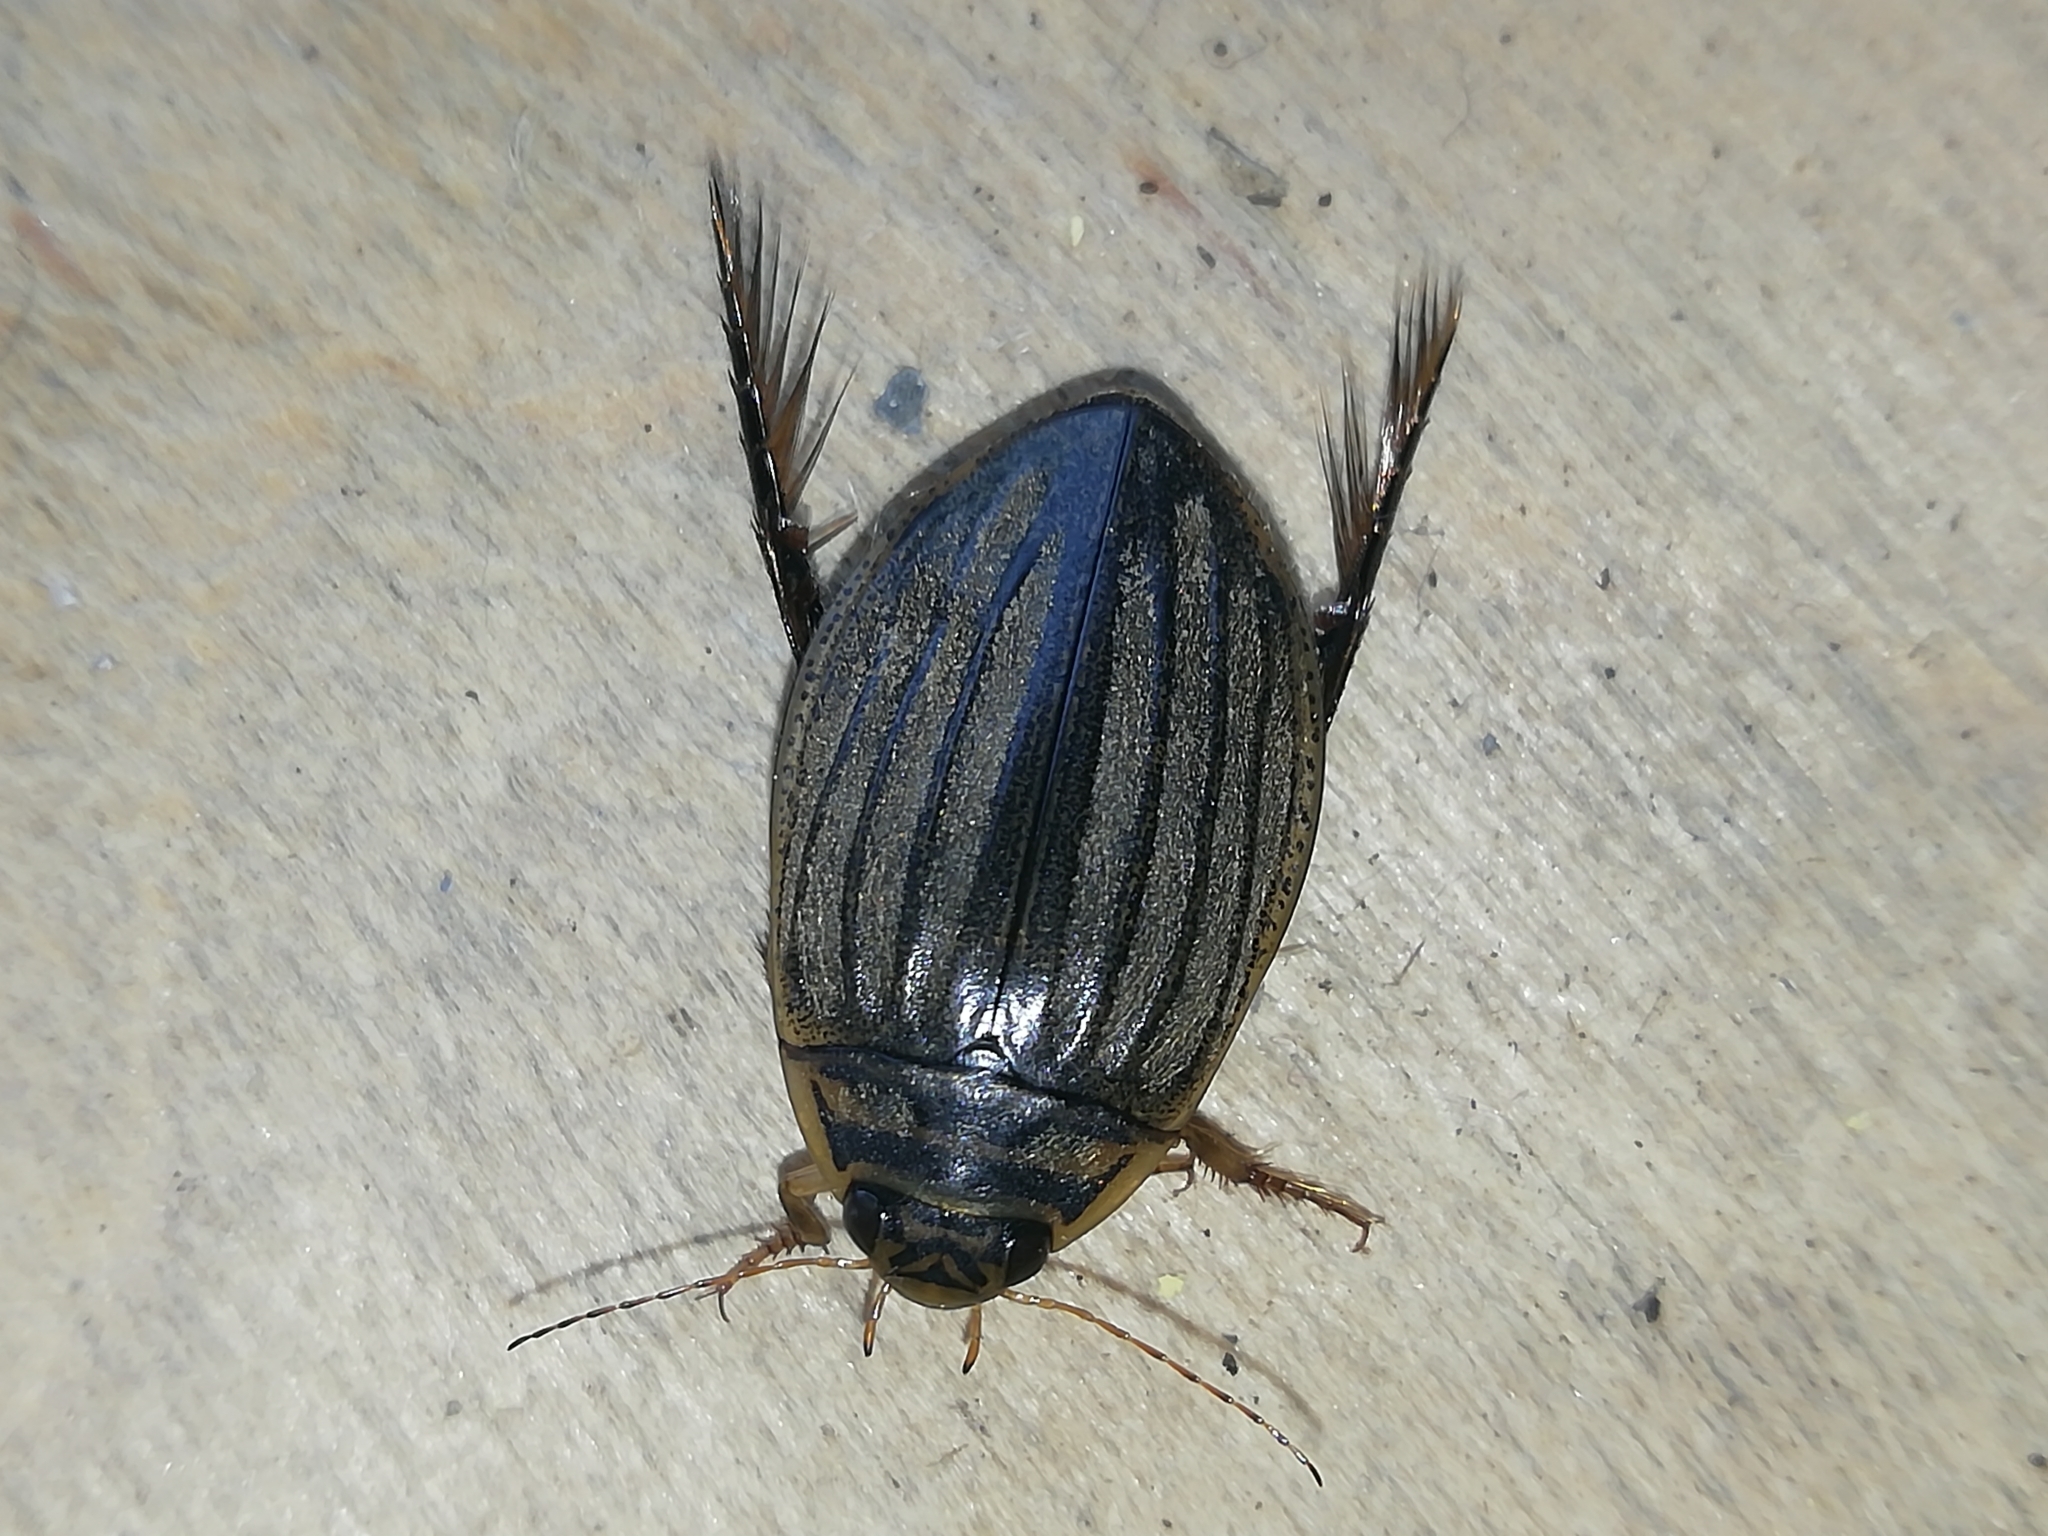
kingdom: Animalia
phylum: Arthropoda
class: Insecta
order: Coleoptera
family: Dytiscidae
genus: Acilius
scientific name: Acilius sulcatus
